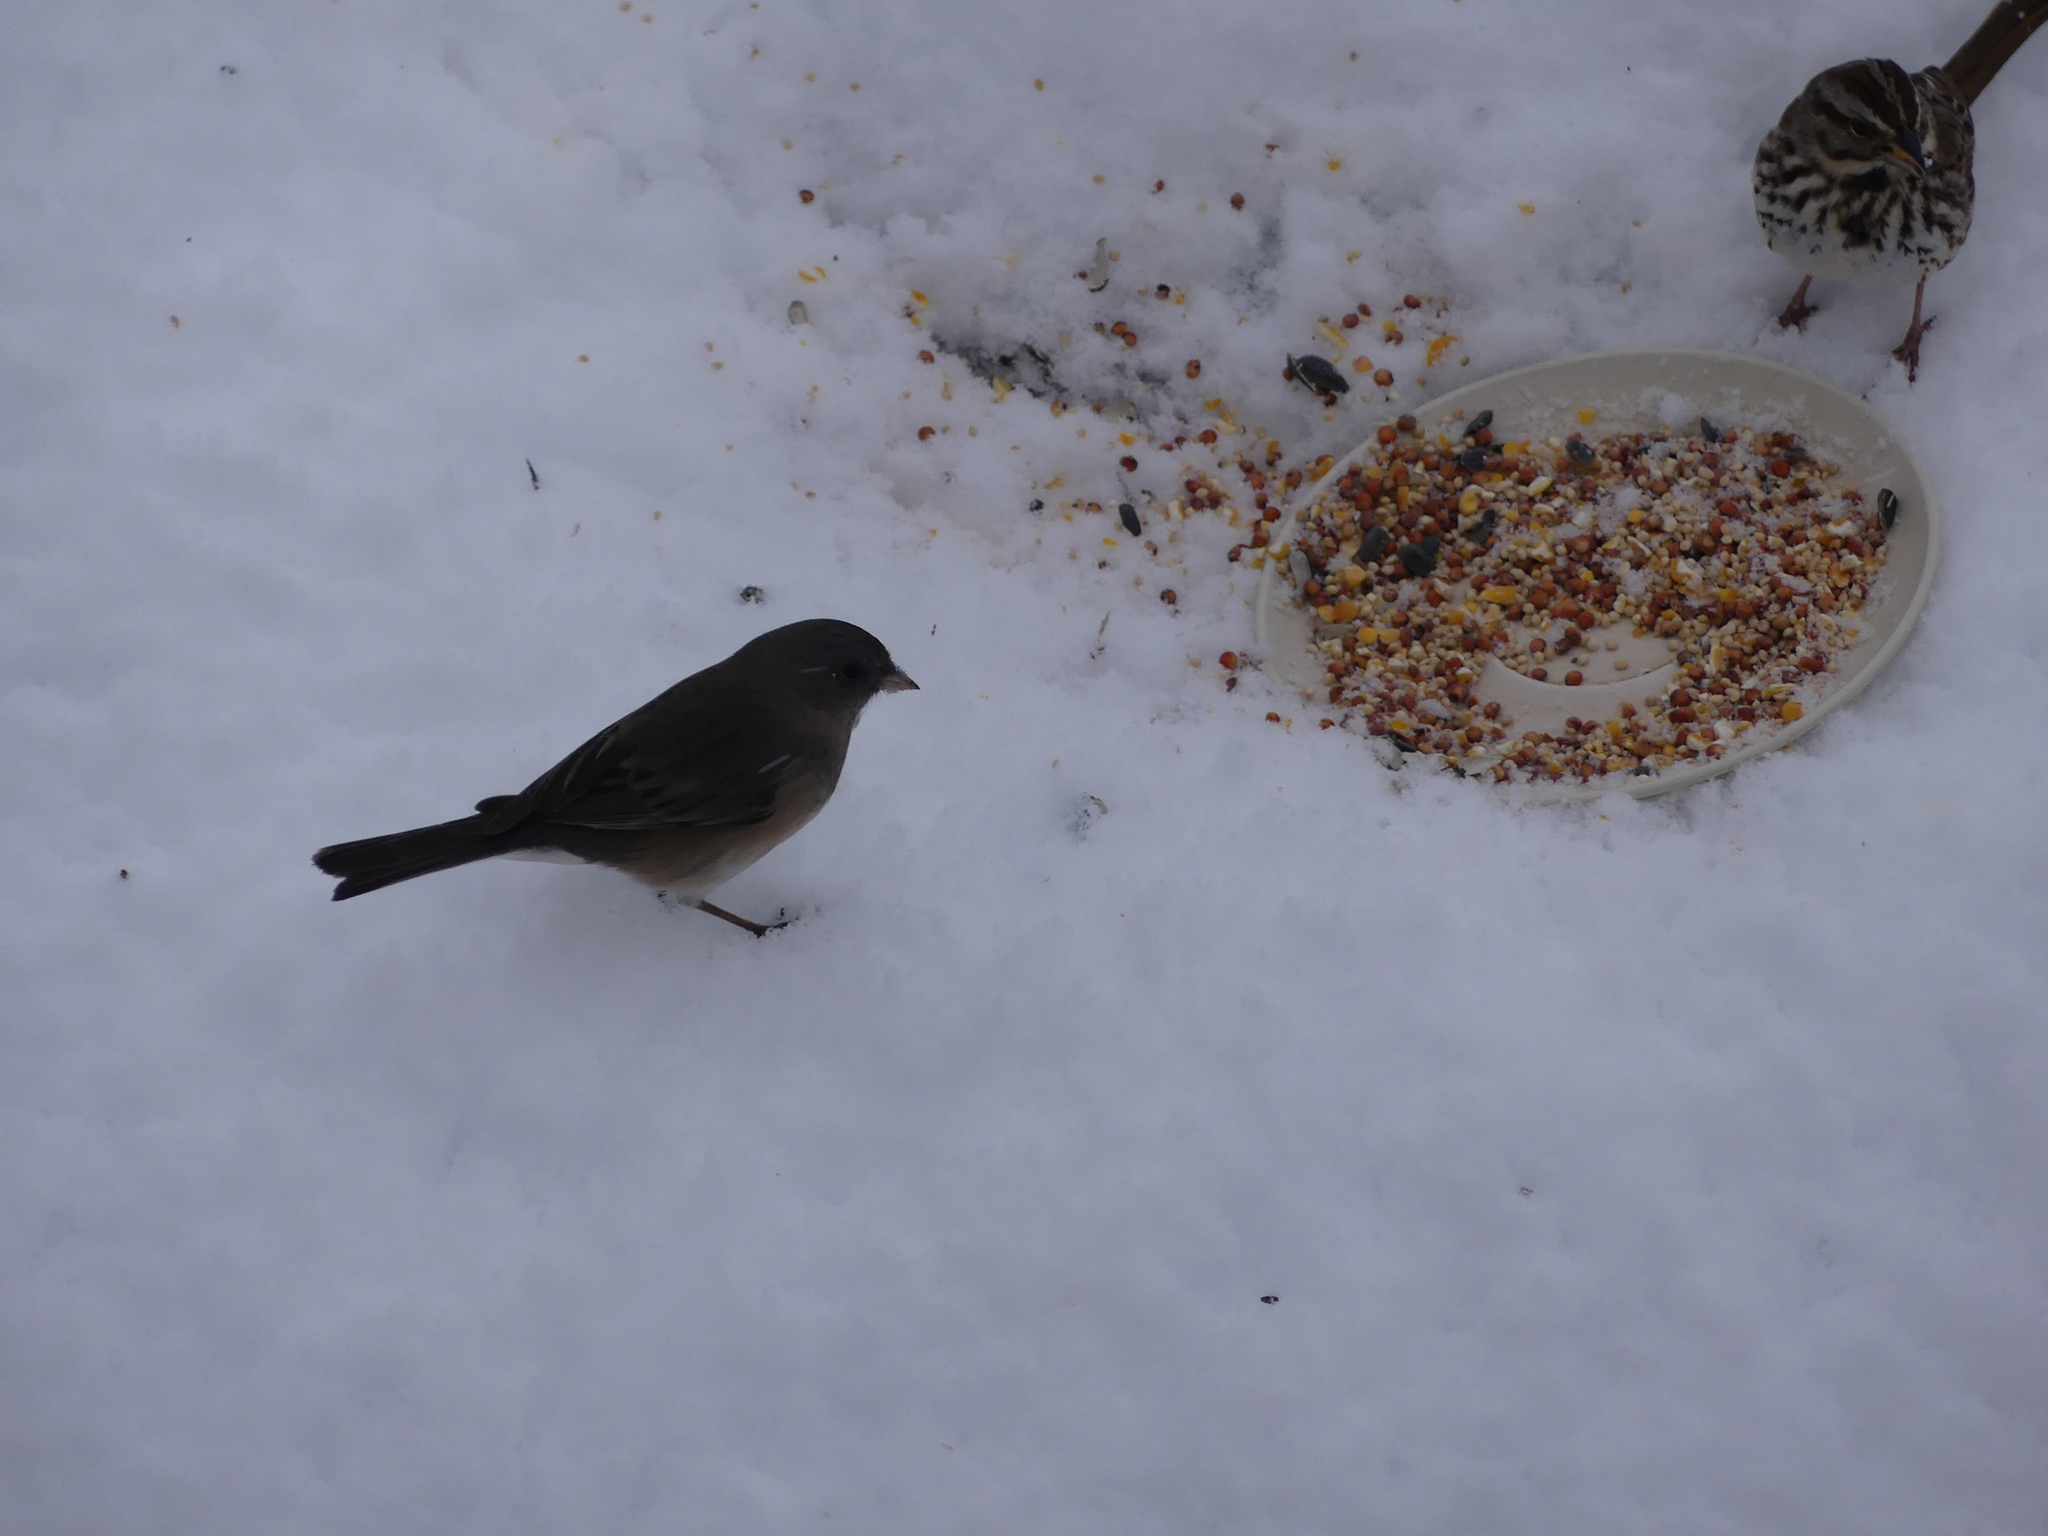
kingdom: Animalia
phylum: Chordata
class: Aves
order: Passeriformes
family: Passerellidae
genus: Junco
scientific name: Junco hyemalis
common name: Dark-eyed junco
